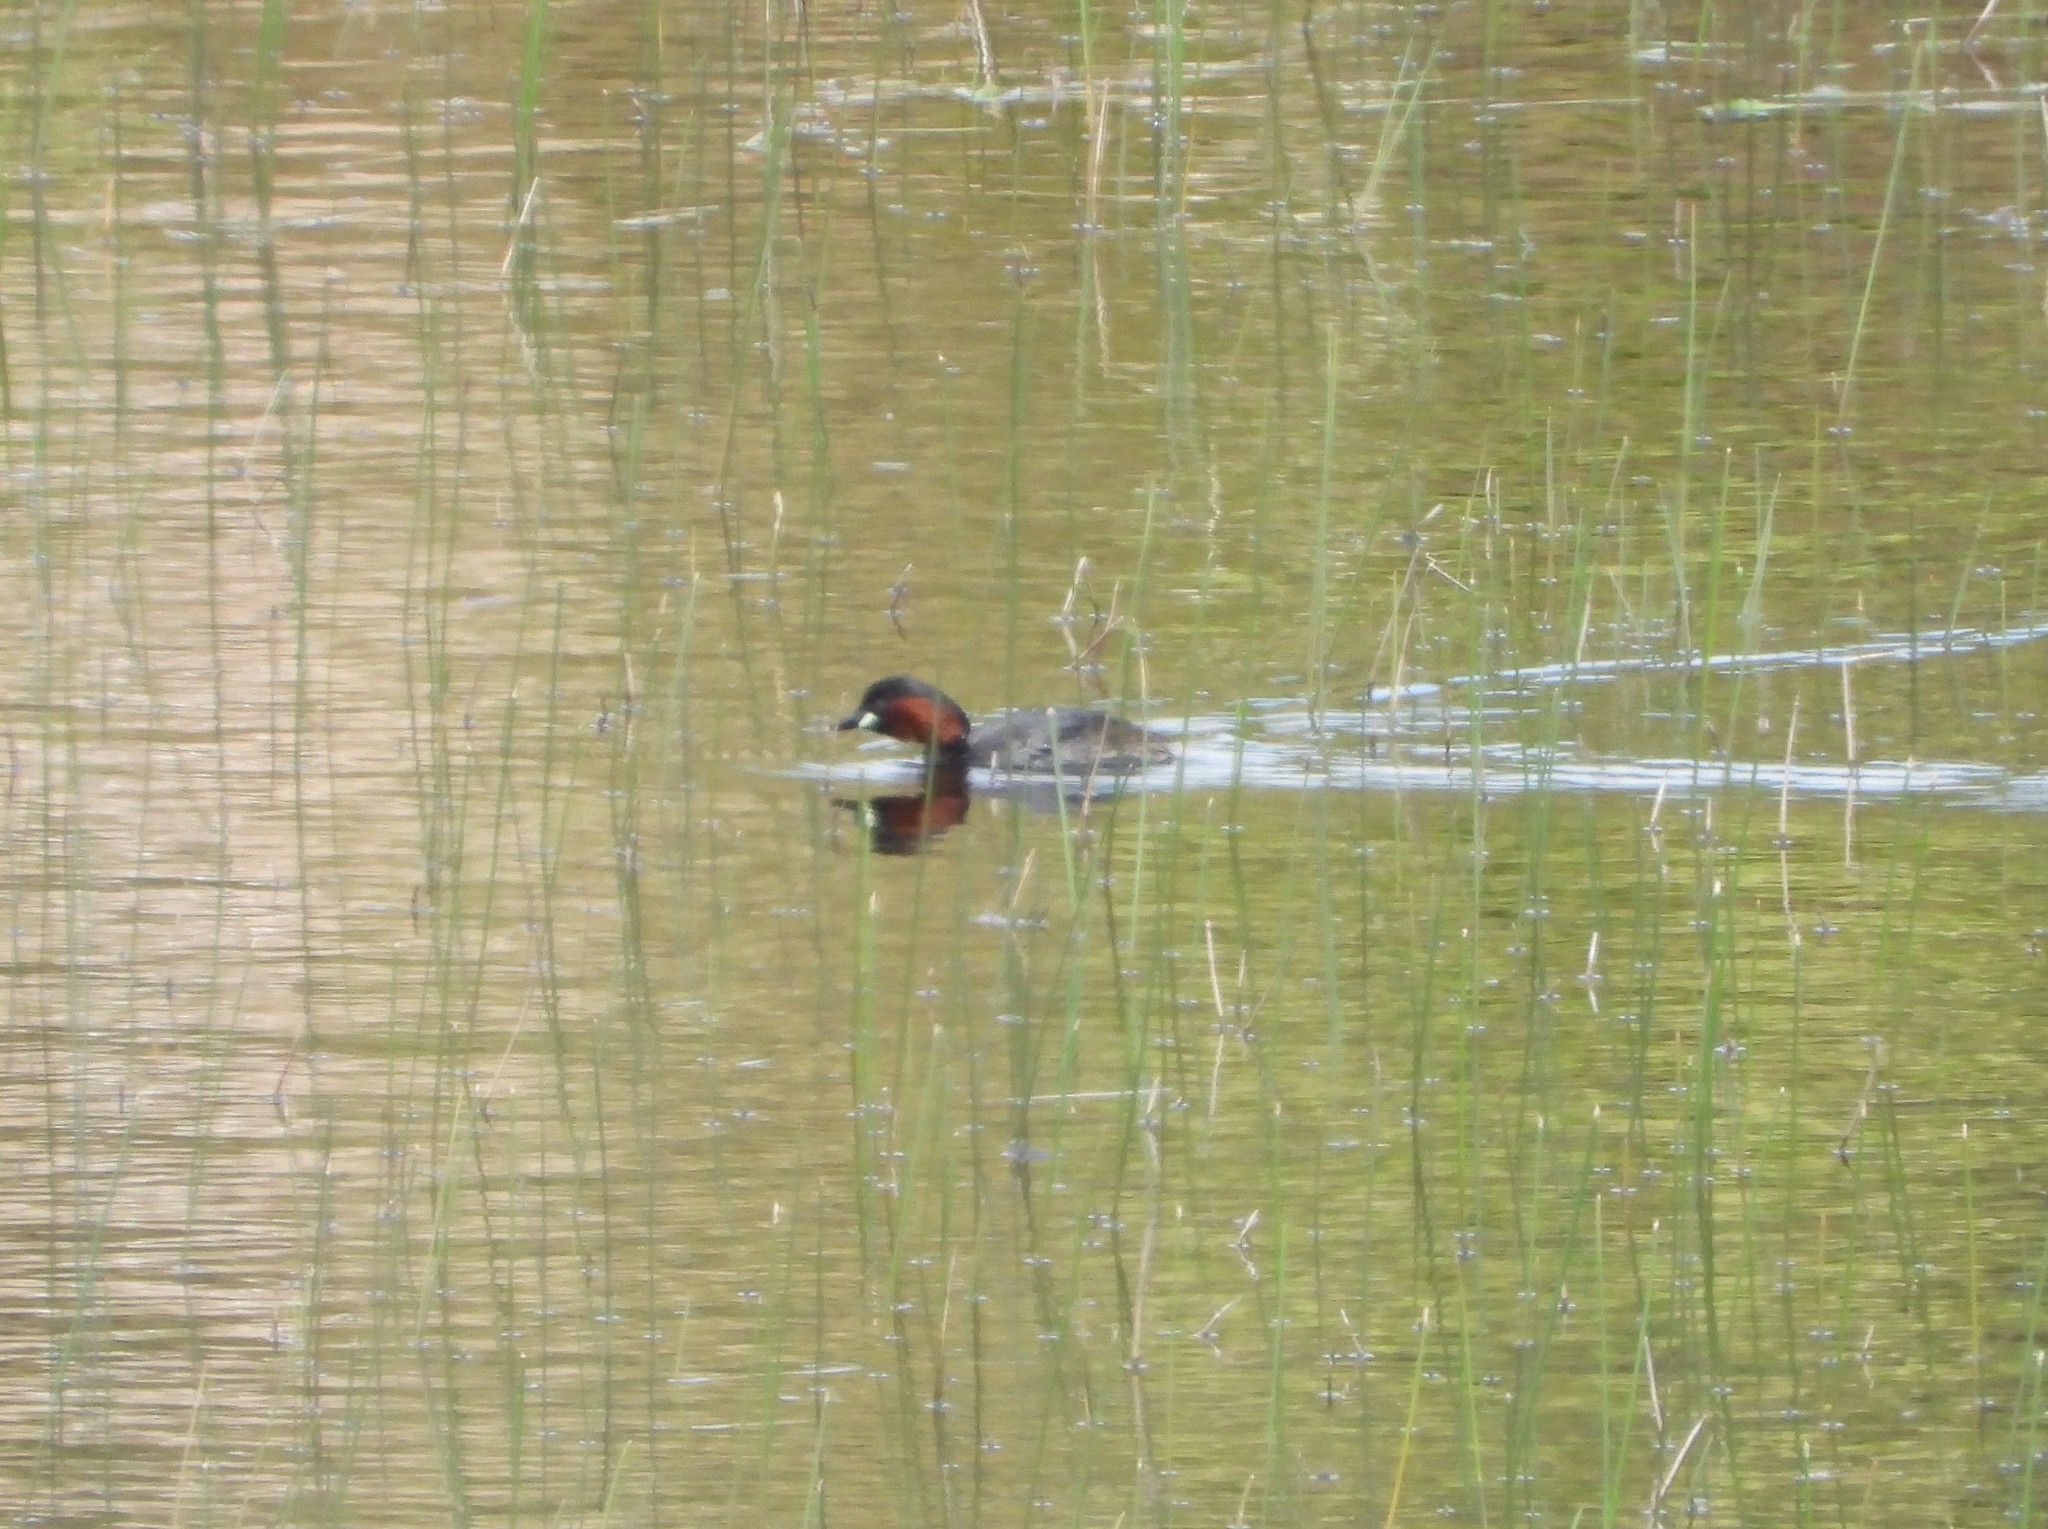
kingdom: Animalia
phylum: Chordata
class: Aves
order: Podicipediformes
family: Podicipedidae
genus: Tachybaptus
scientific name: Tachybaptus ruficollis
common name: Little grebe
